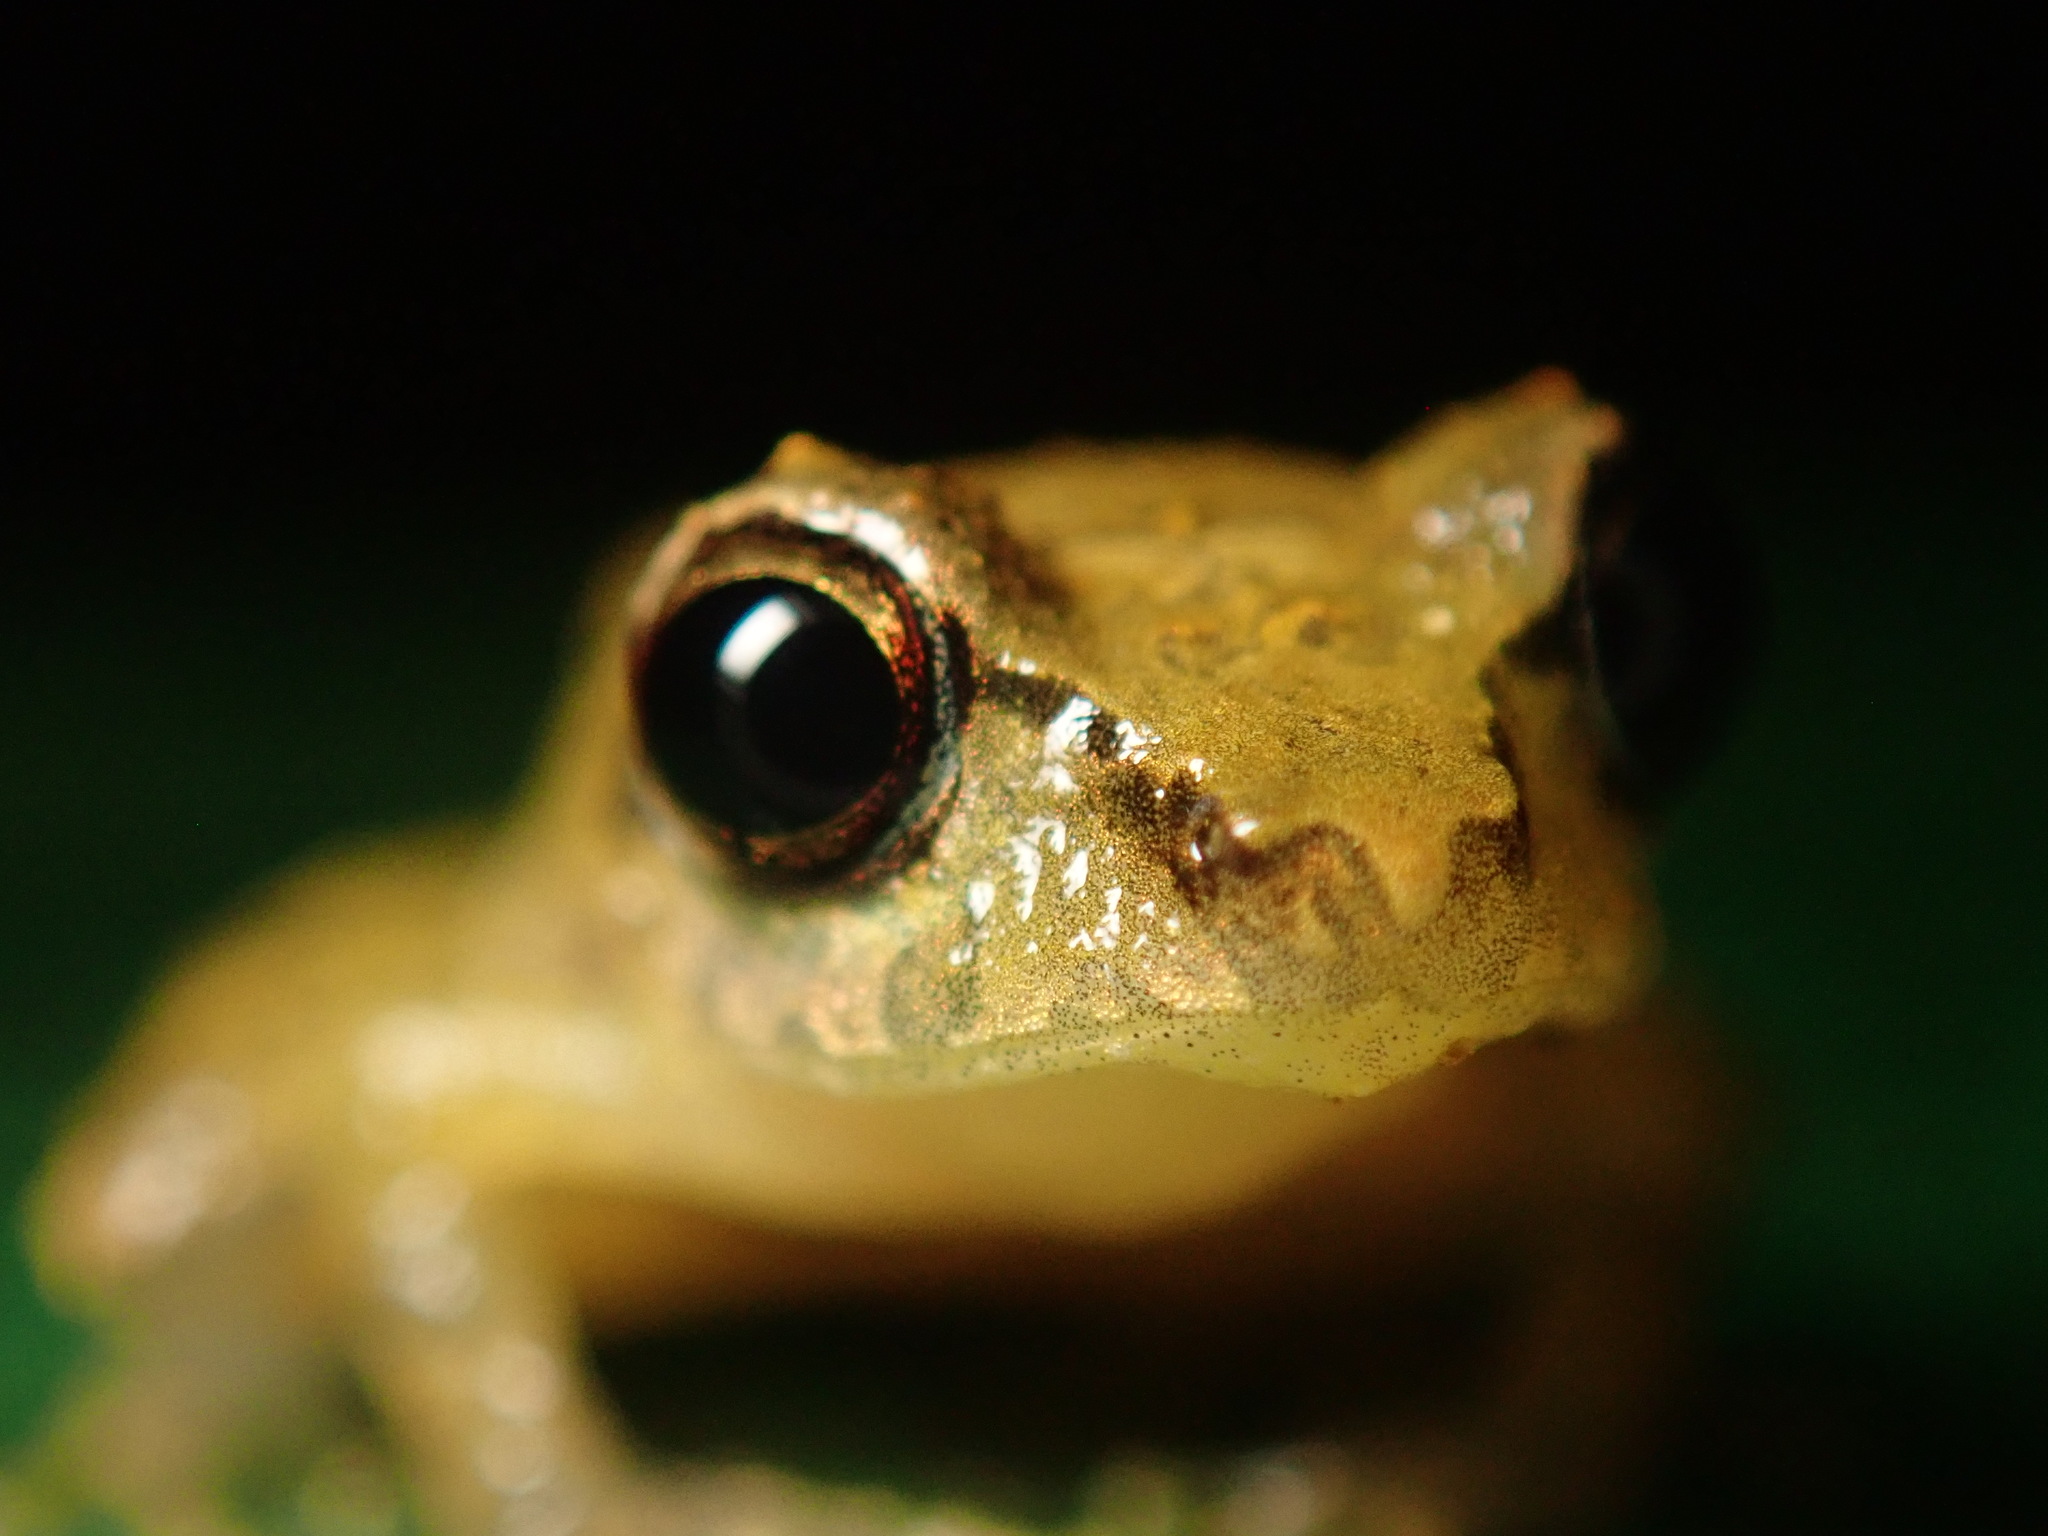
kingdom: Animalia
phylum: Chordata
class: Amphibia
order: Anura
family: Craugastoridae
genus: Pristimantis
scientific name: Pristimantis ridens
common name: Rio san juan robber frog
